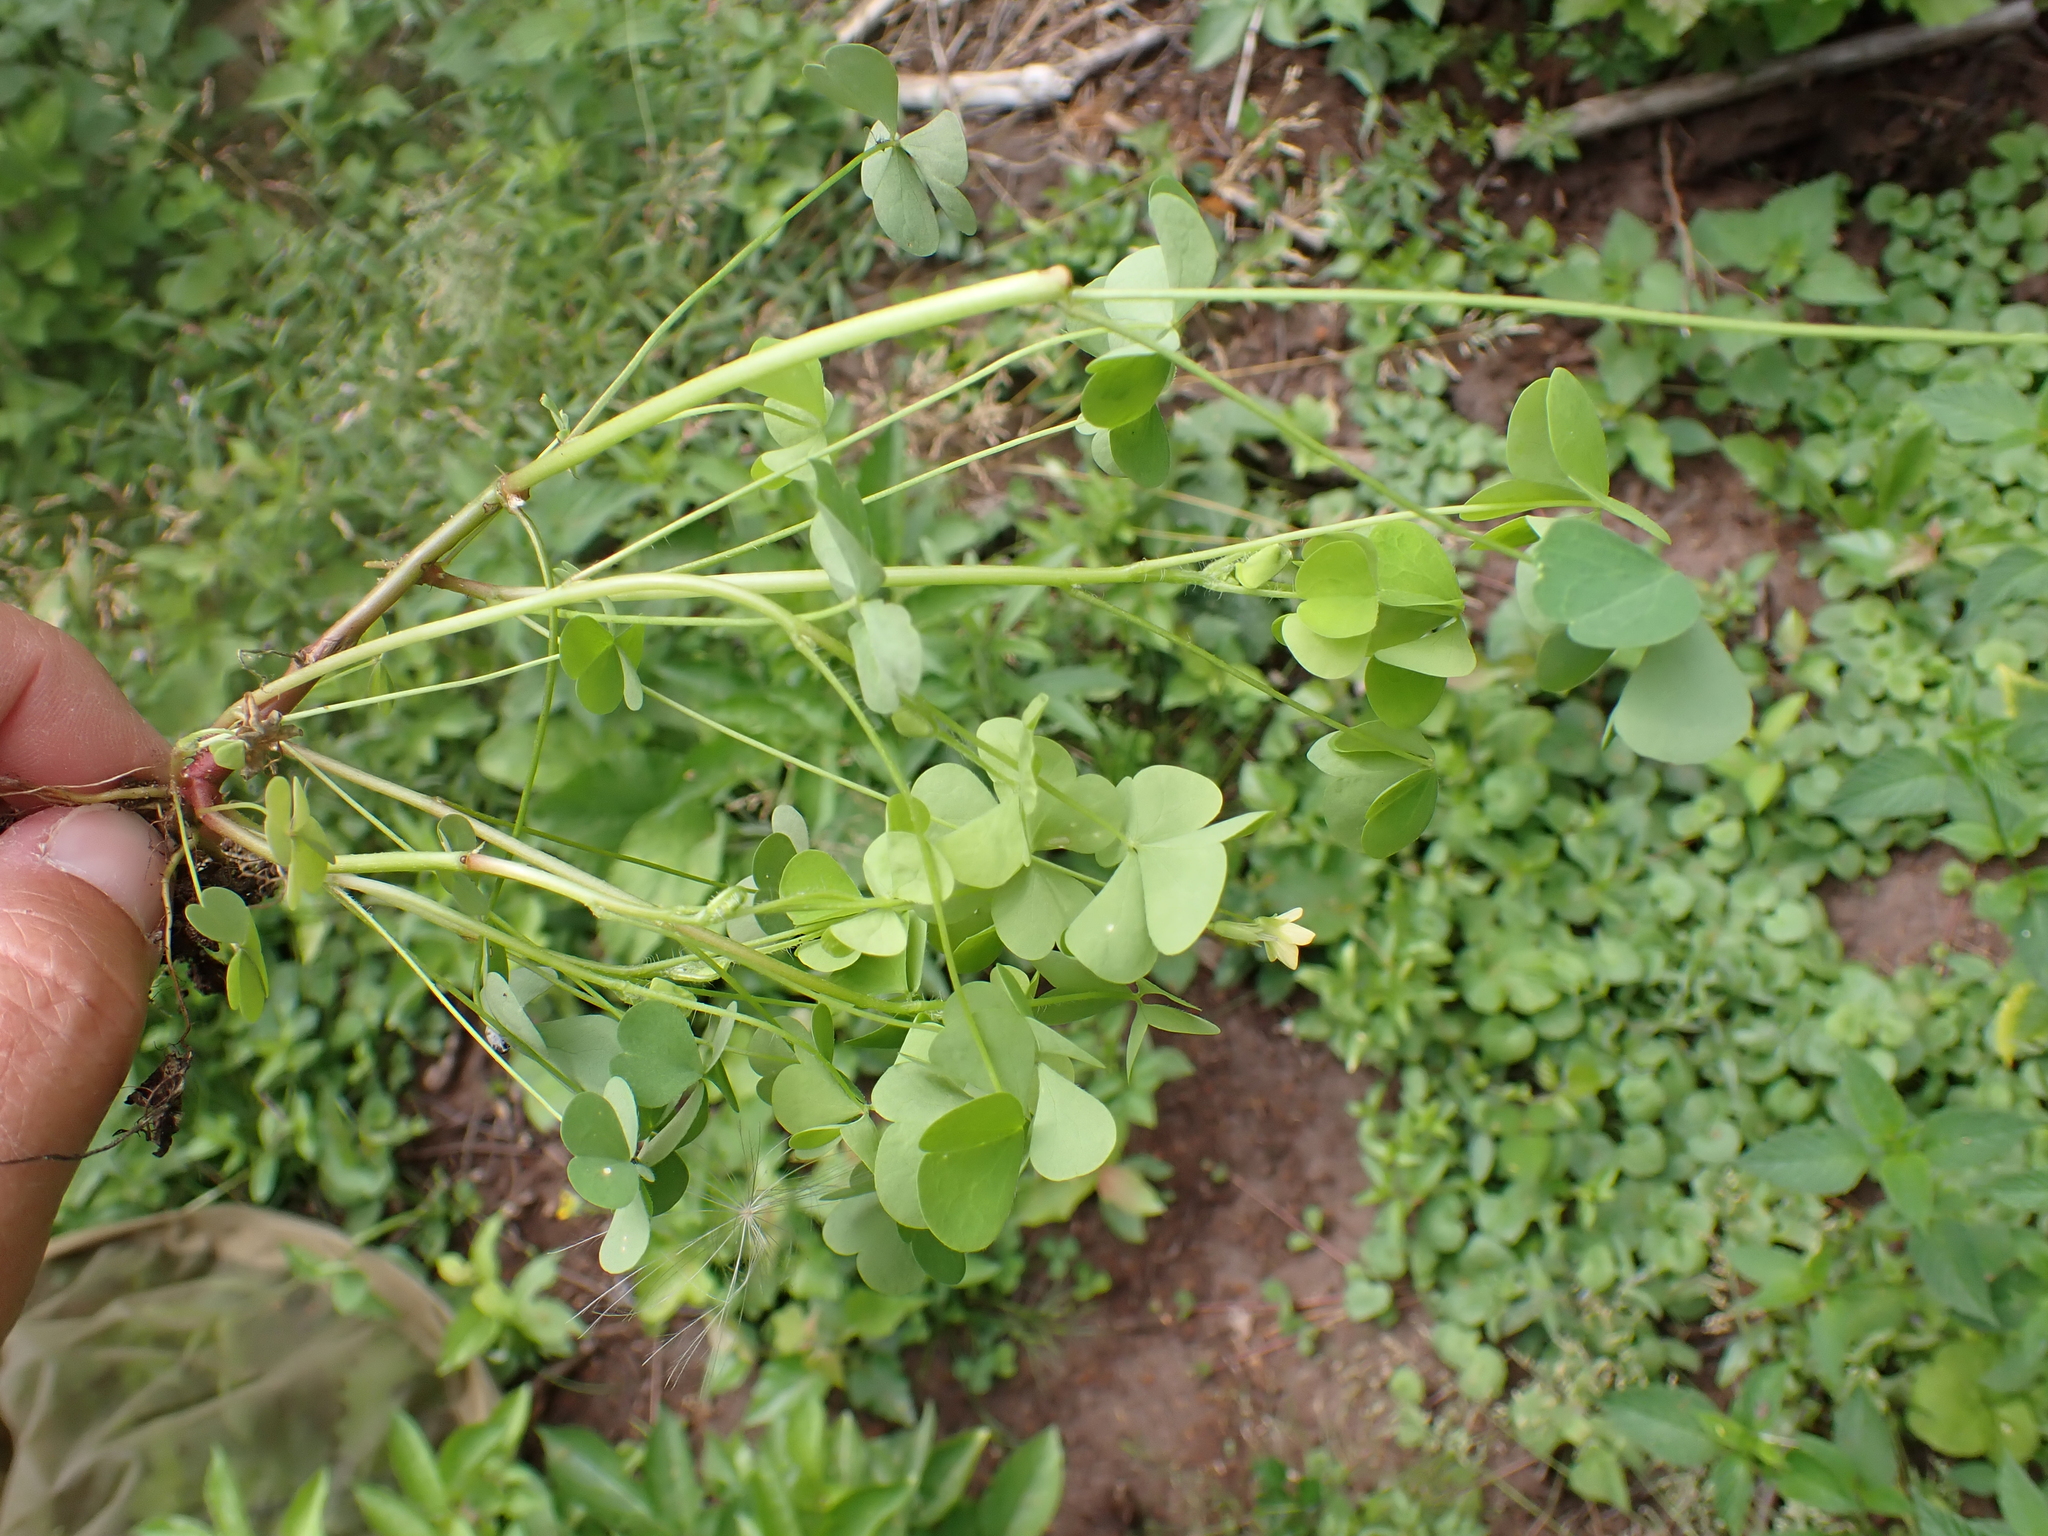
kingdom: Plantae
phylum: Tracheophyta
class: Magnoliopsida
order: Oxalidales
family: Oxalidaceae
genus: Oxalis
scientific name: Oxalis stricta
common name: Upright yellow-sorrel
